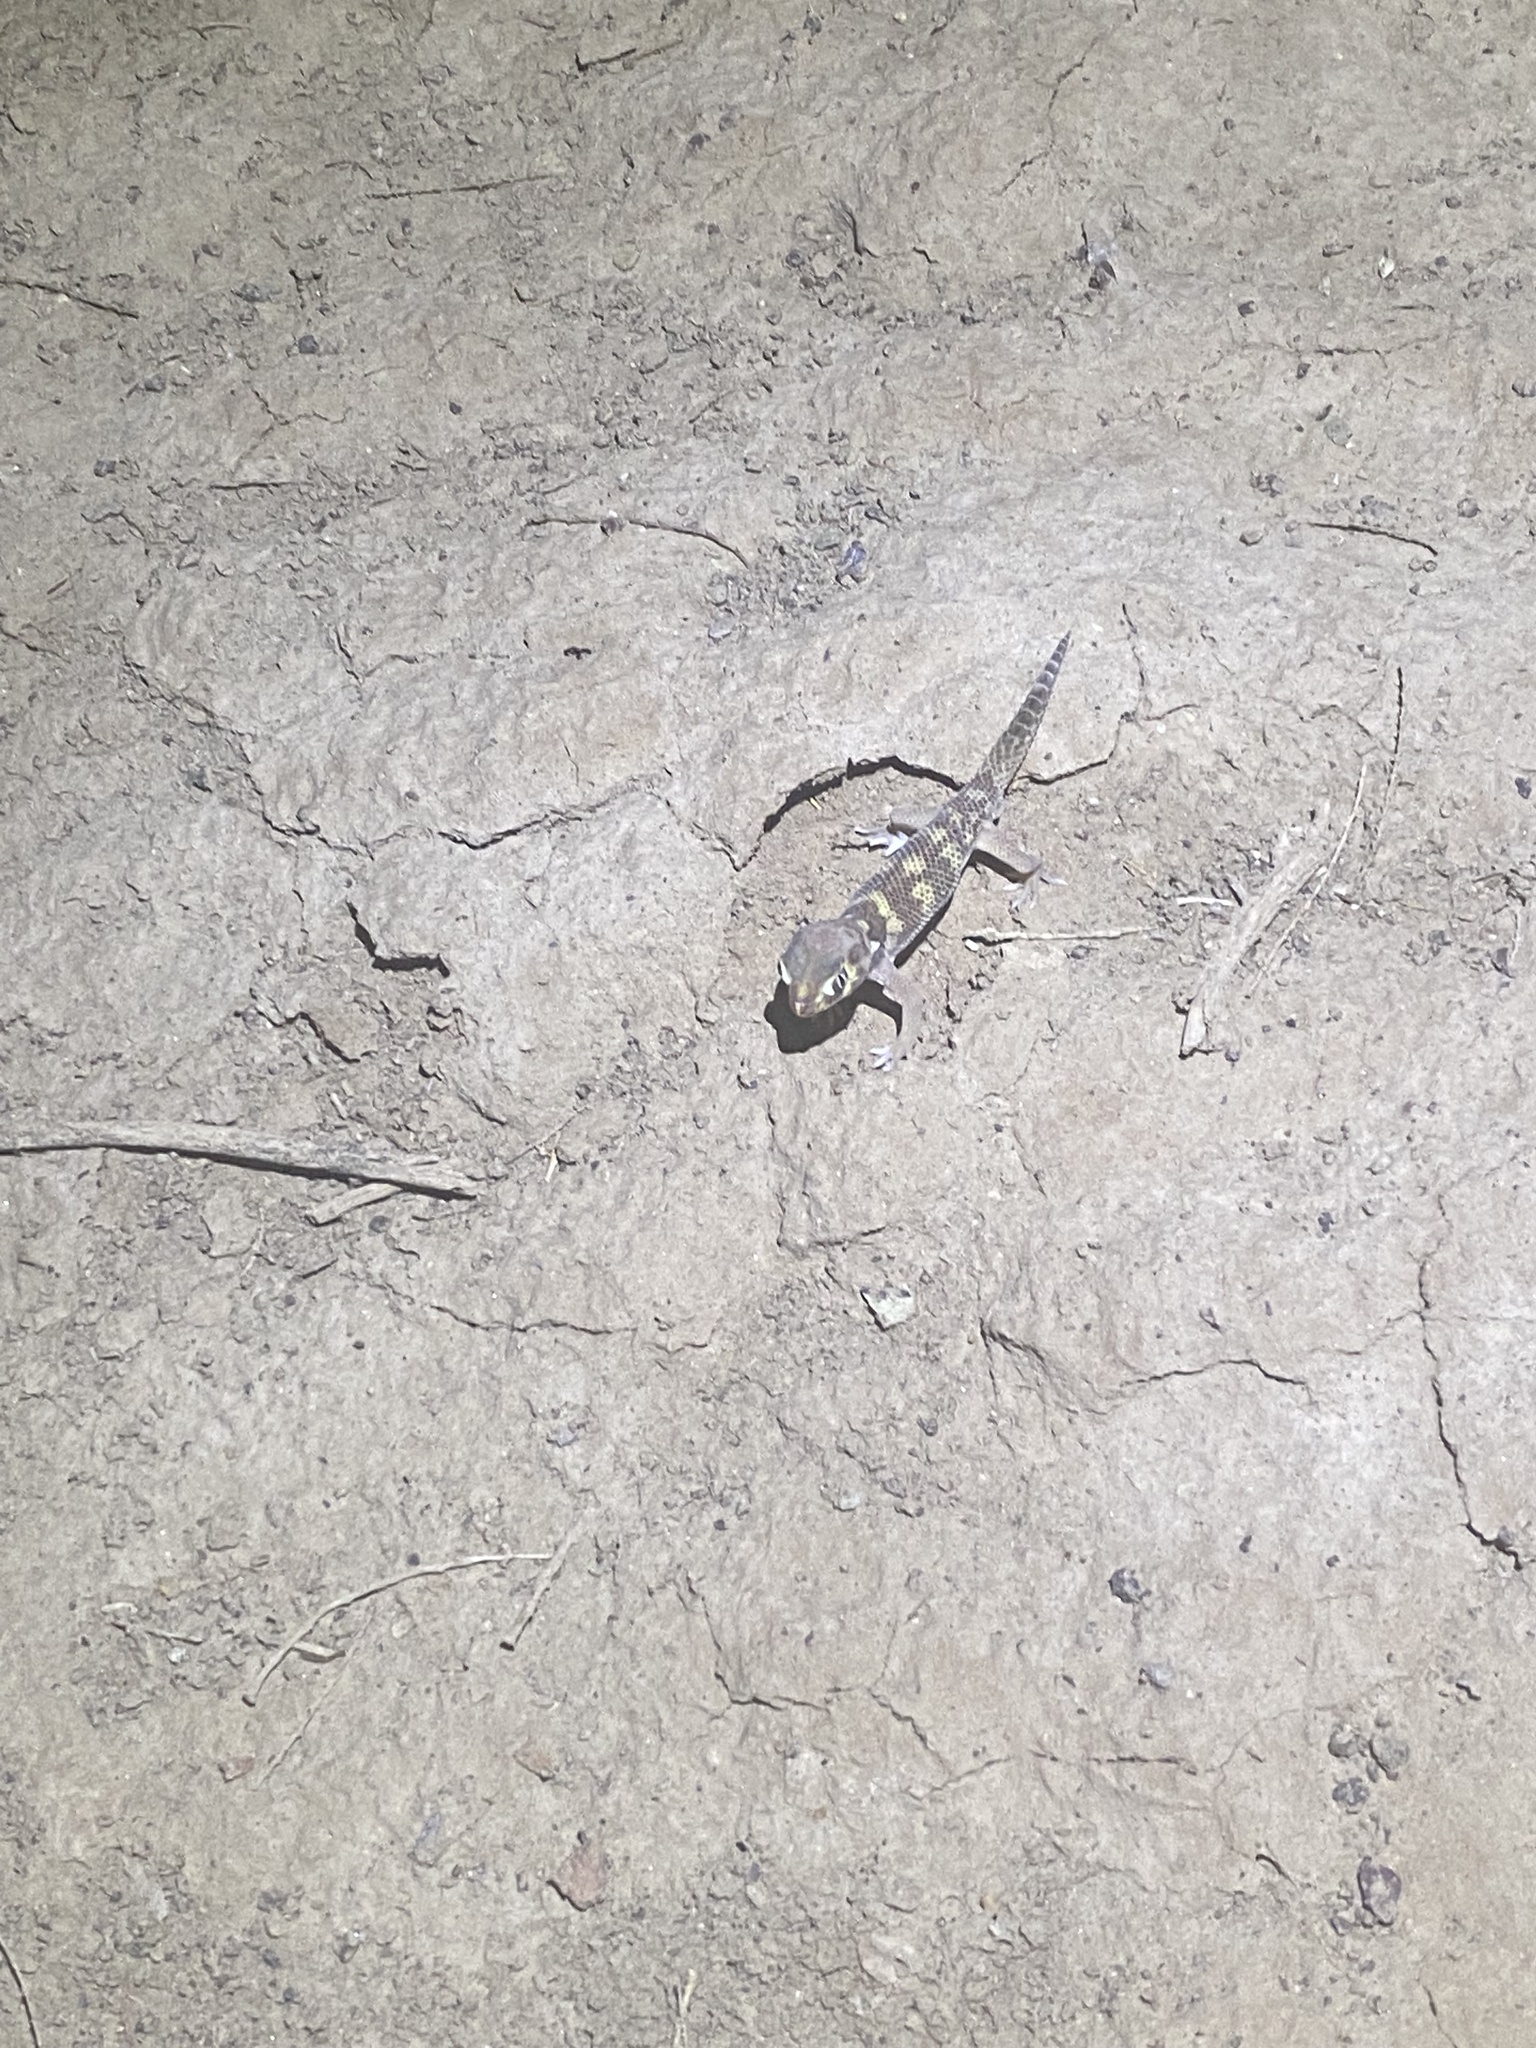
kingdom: Animalia
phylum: Chordata
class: Squamata
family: Sphaerodactylidae
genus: Teratoscincus
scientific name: Teratoscincus bedriagai
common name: Bedriaga's plate-tailed gecko
